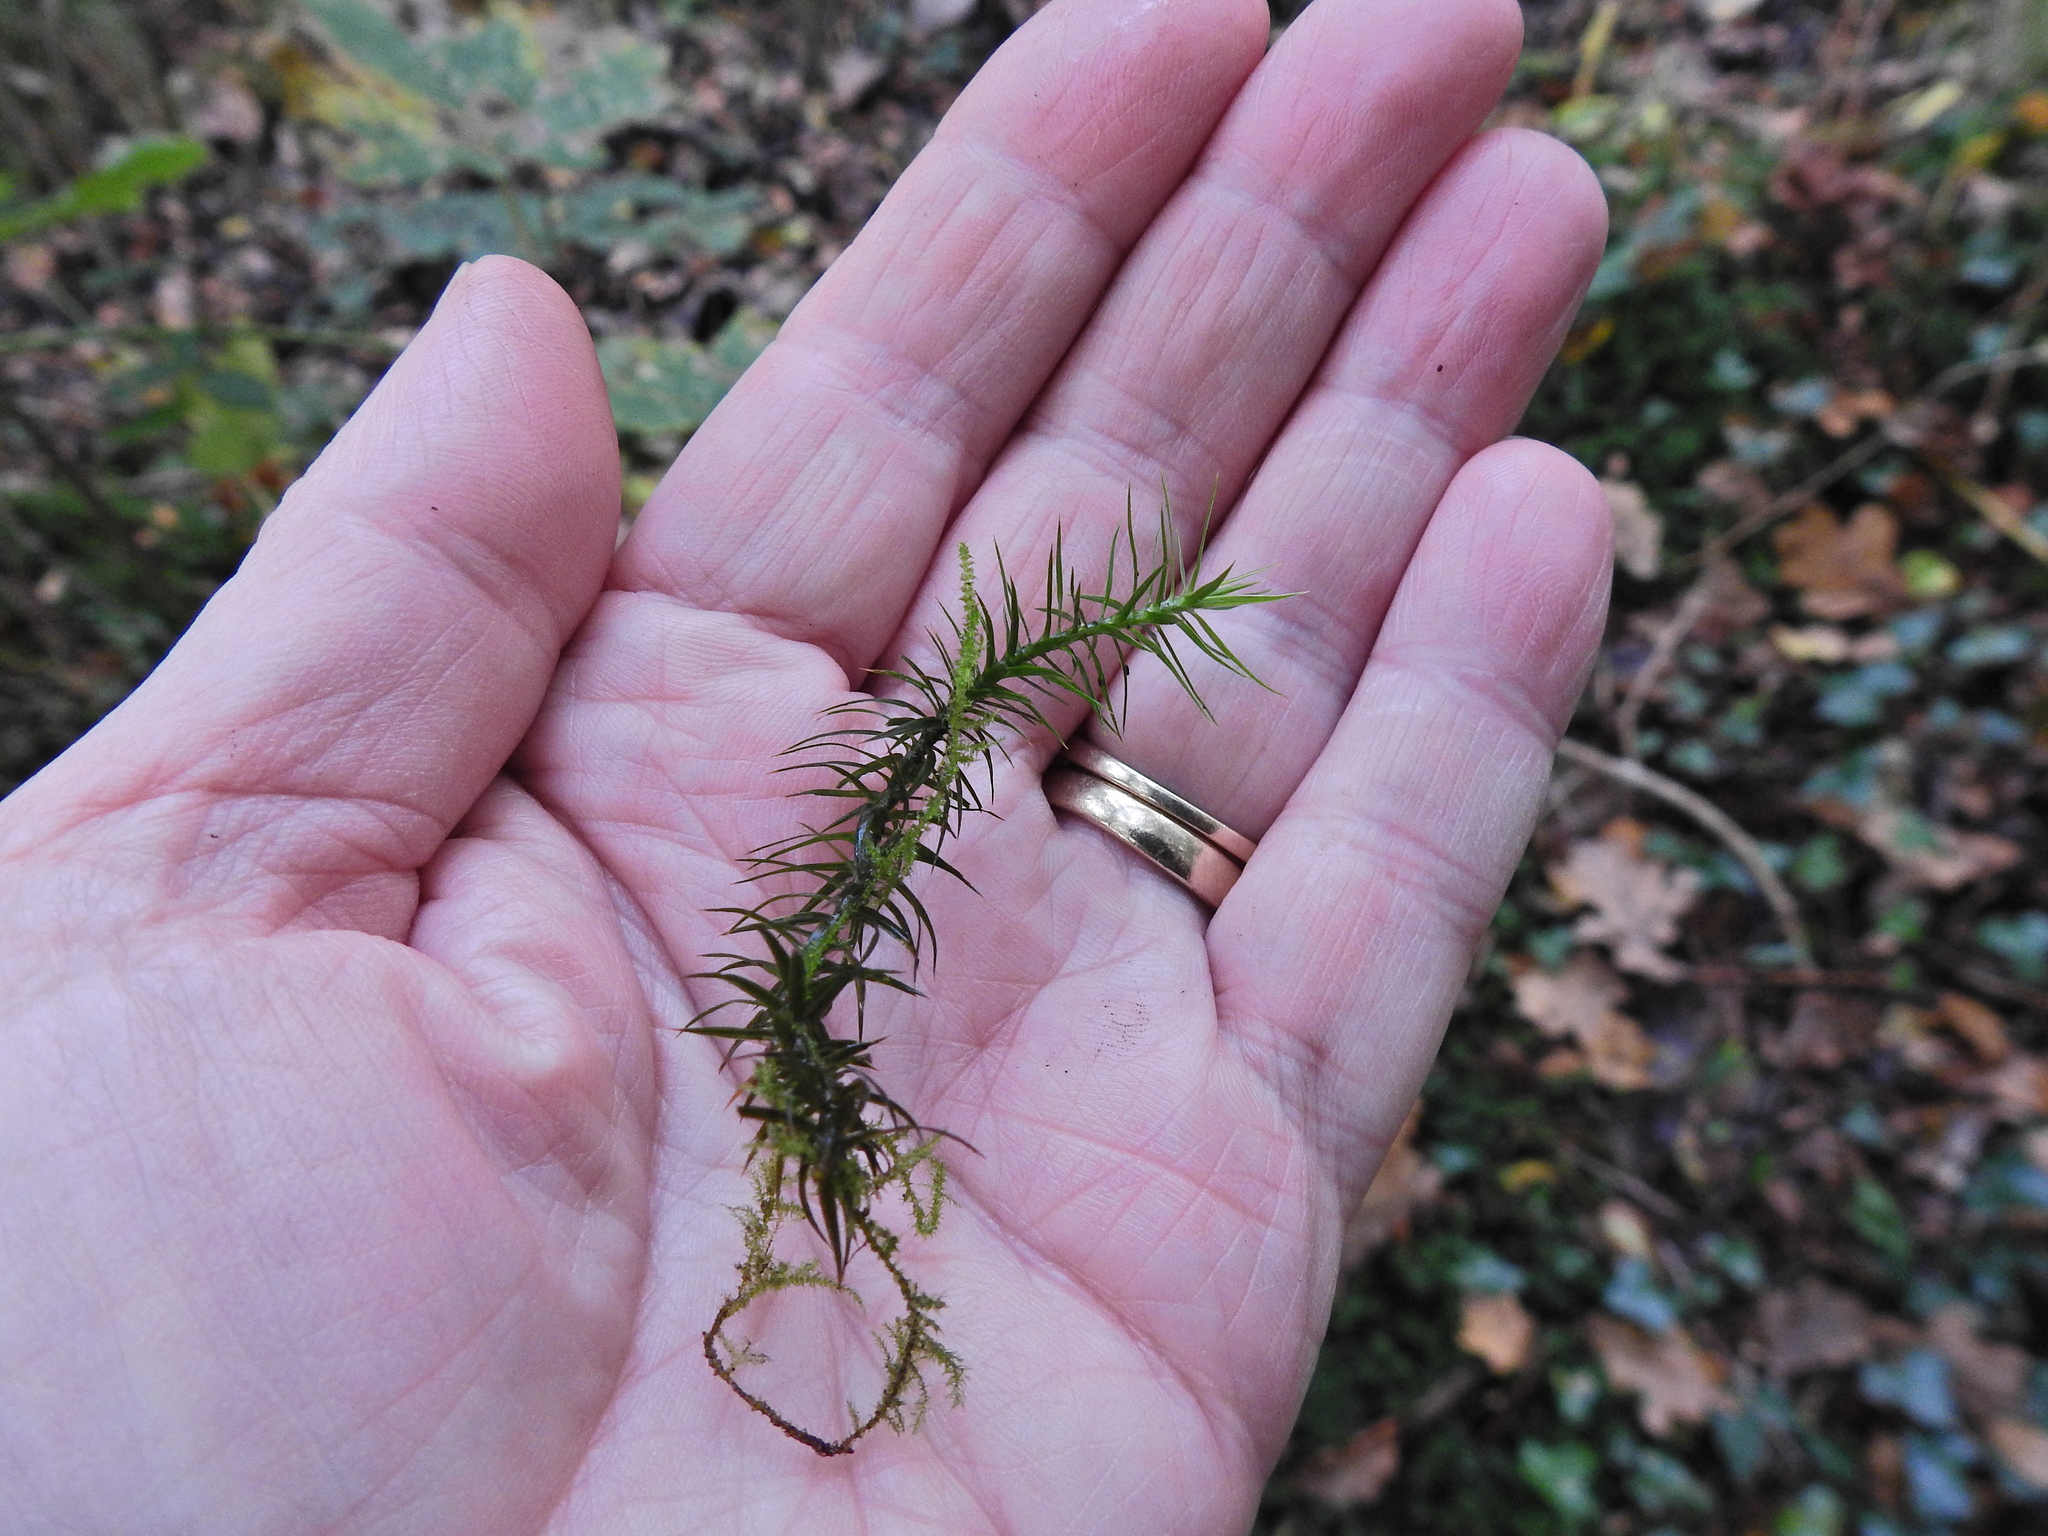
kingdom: Plantae
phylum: Bryophyta
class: Polytrichopsida
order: Polytrichales
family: Polytrichaceae
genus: Polytrichum
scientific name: Polytrichum formosum
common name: Bank haircap moss
